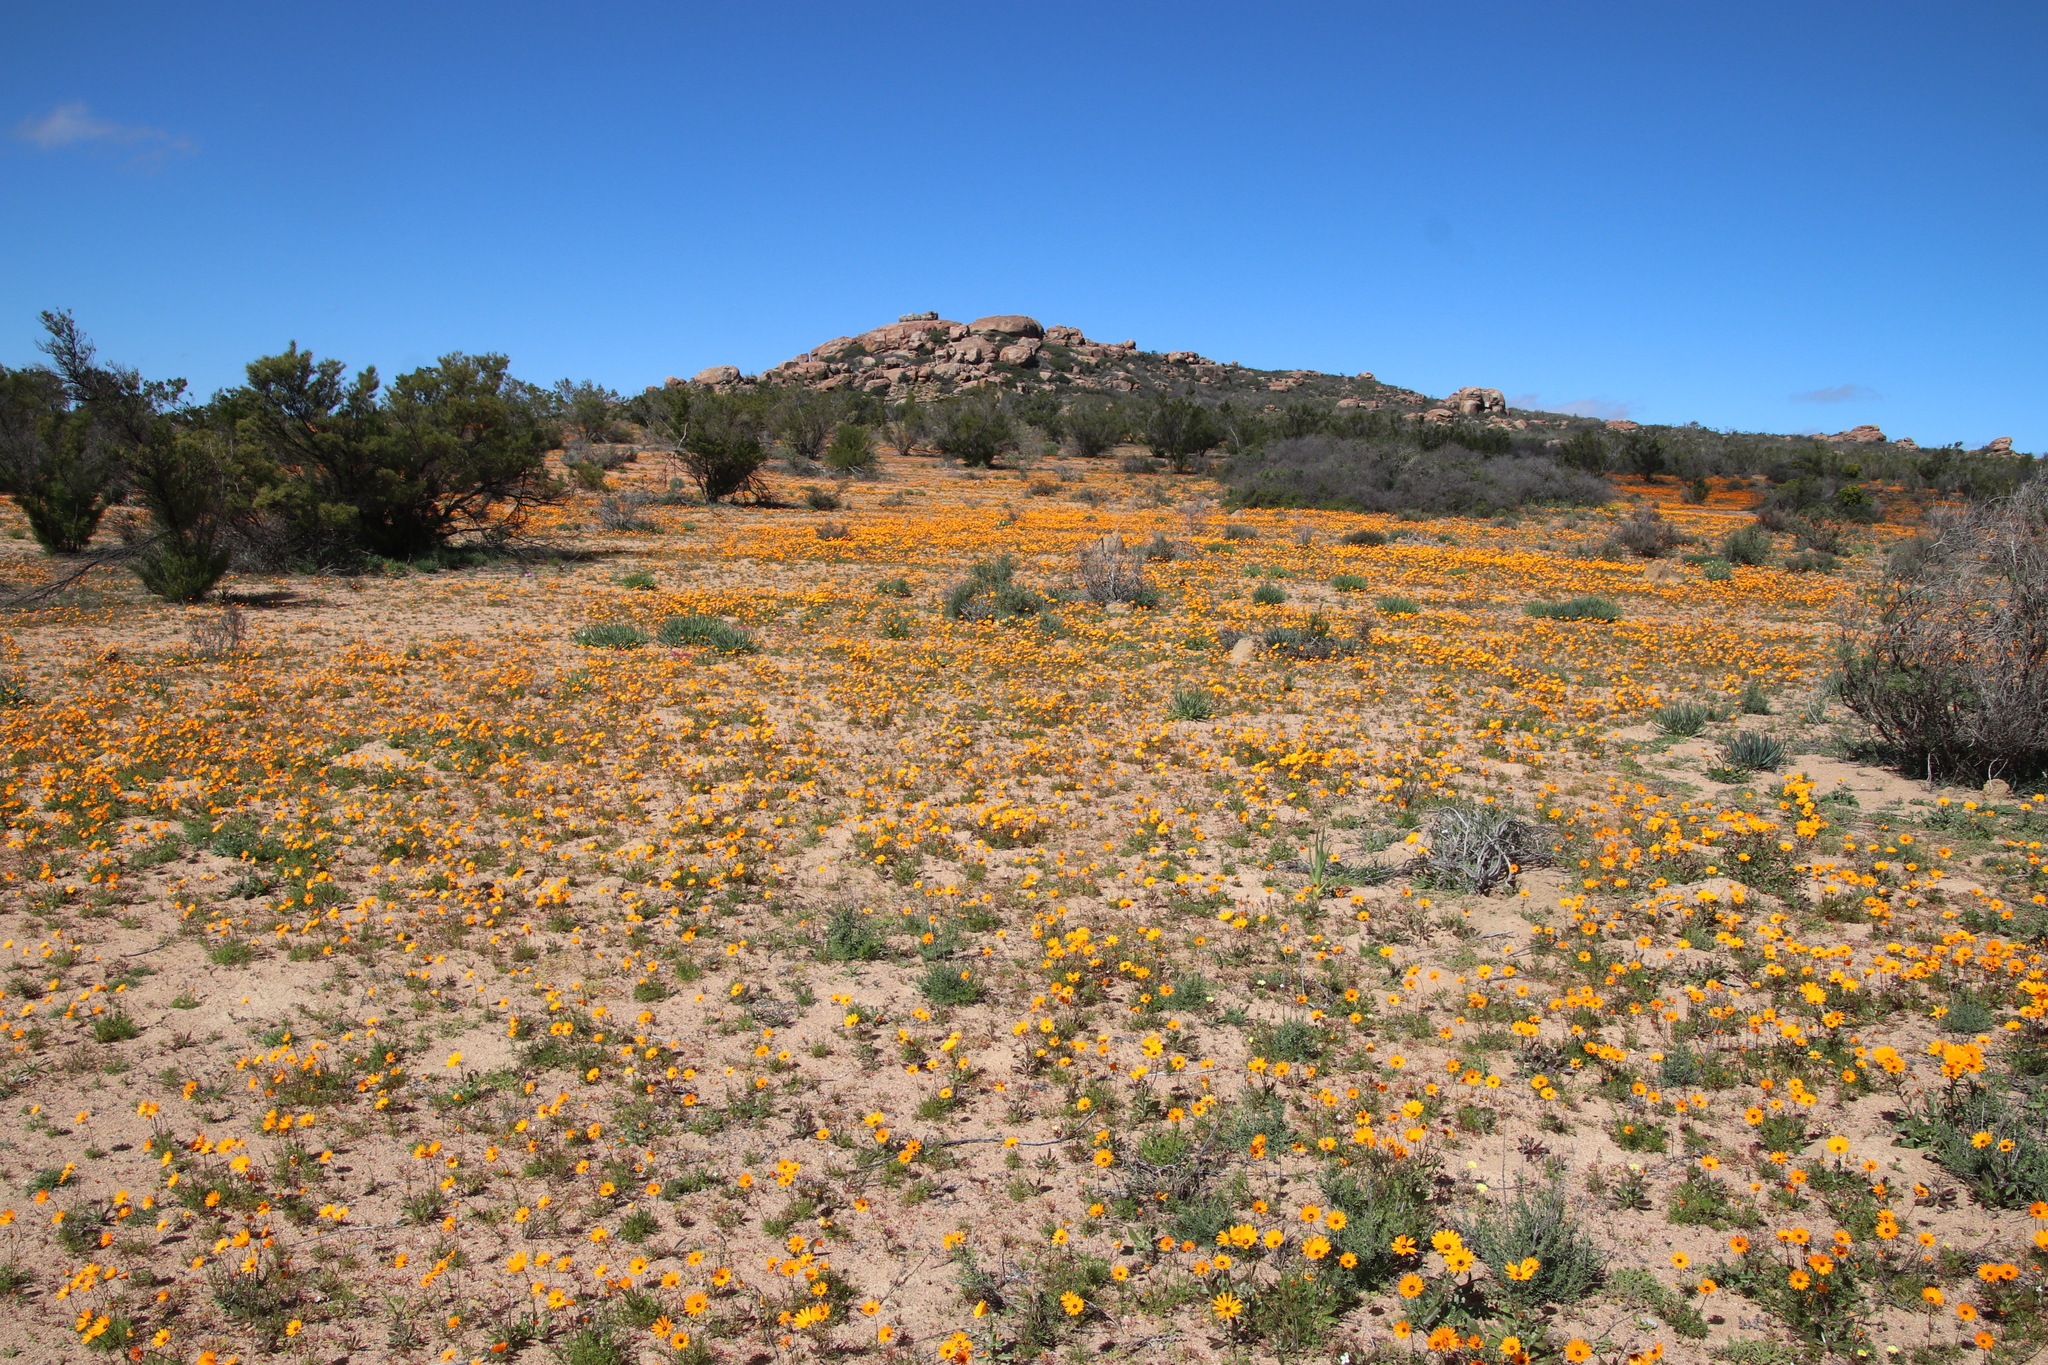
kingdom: Plantae
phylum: Tracheophyta
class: Magnoliopsida
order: Asterales
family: Asteraceae
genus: Dimorphotheca
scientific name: Dimorphotheca sinuata
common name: Glandular cape marigold
